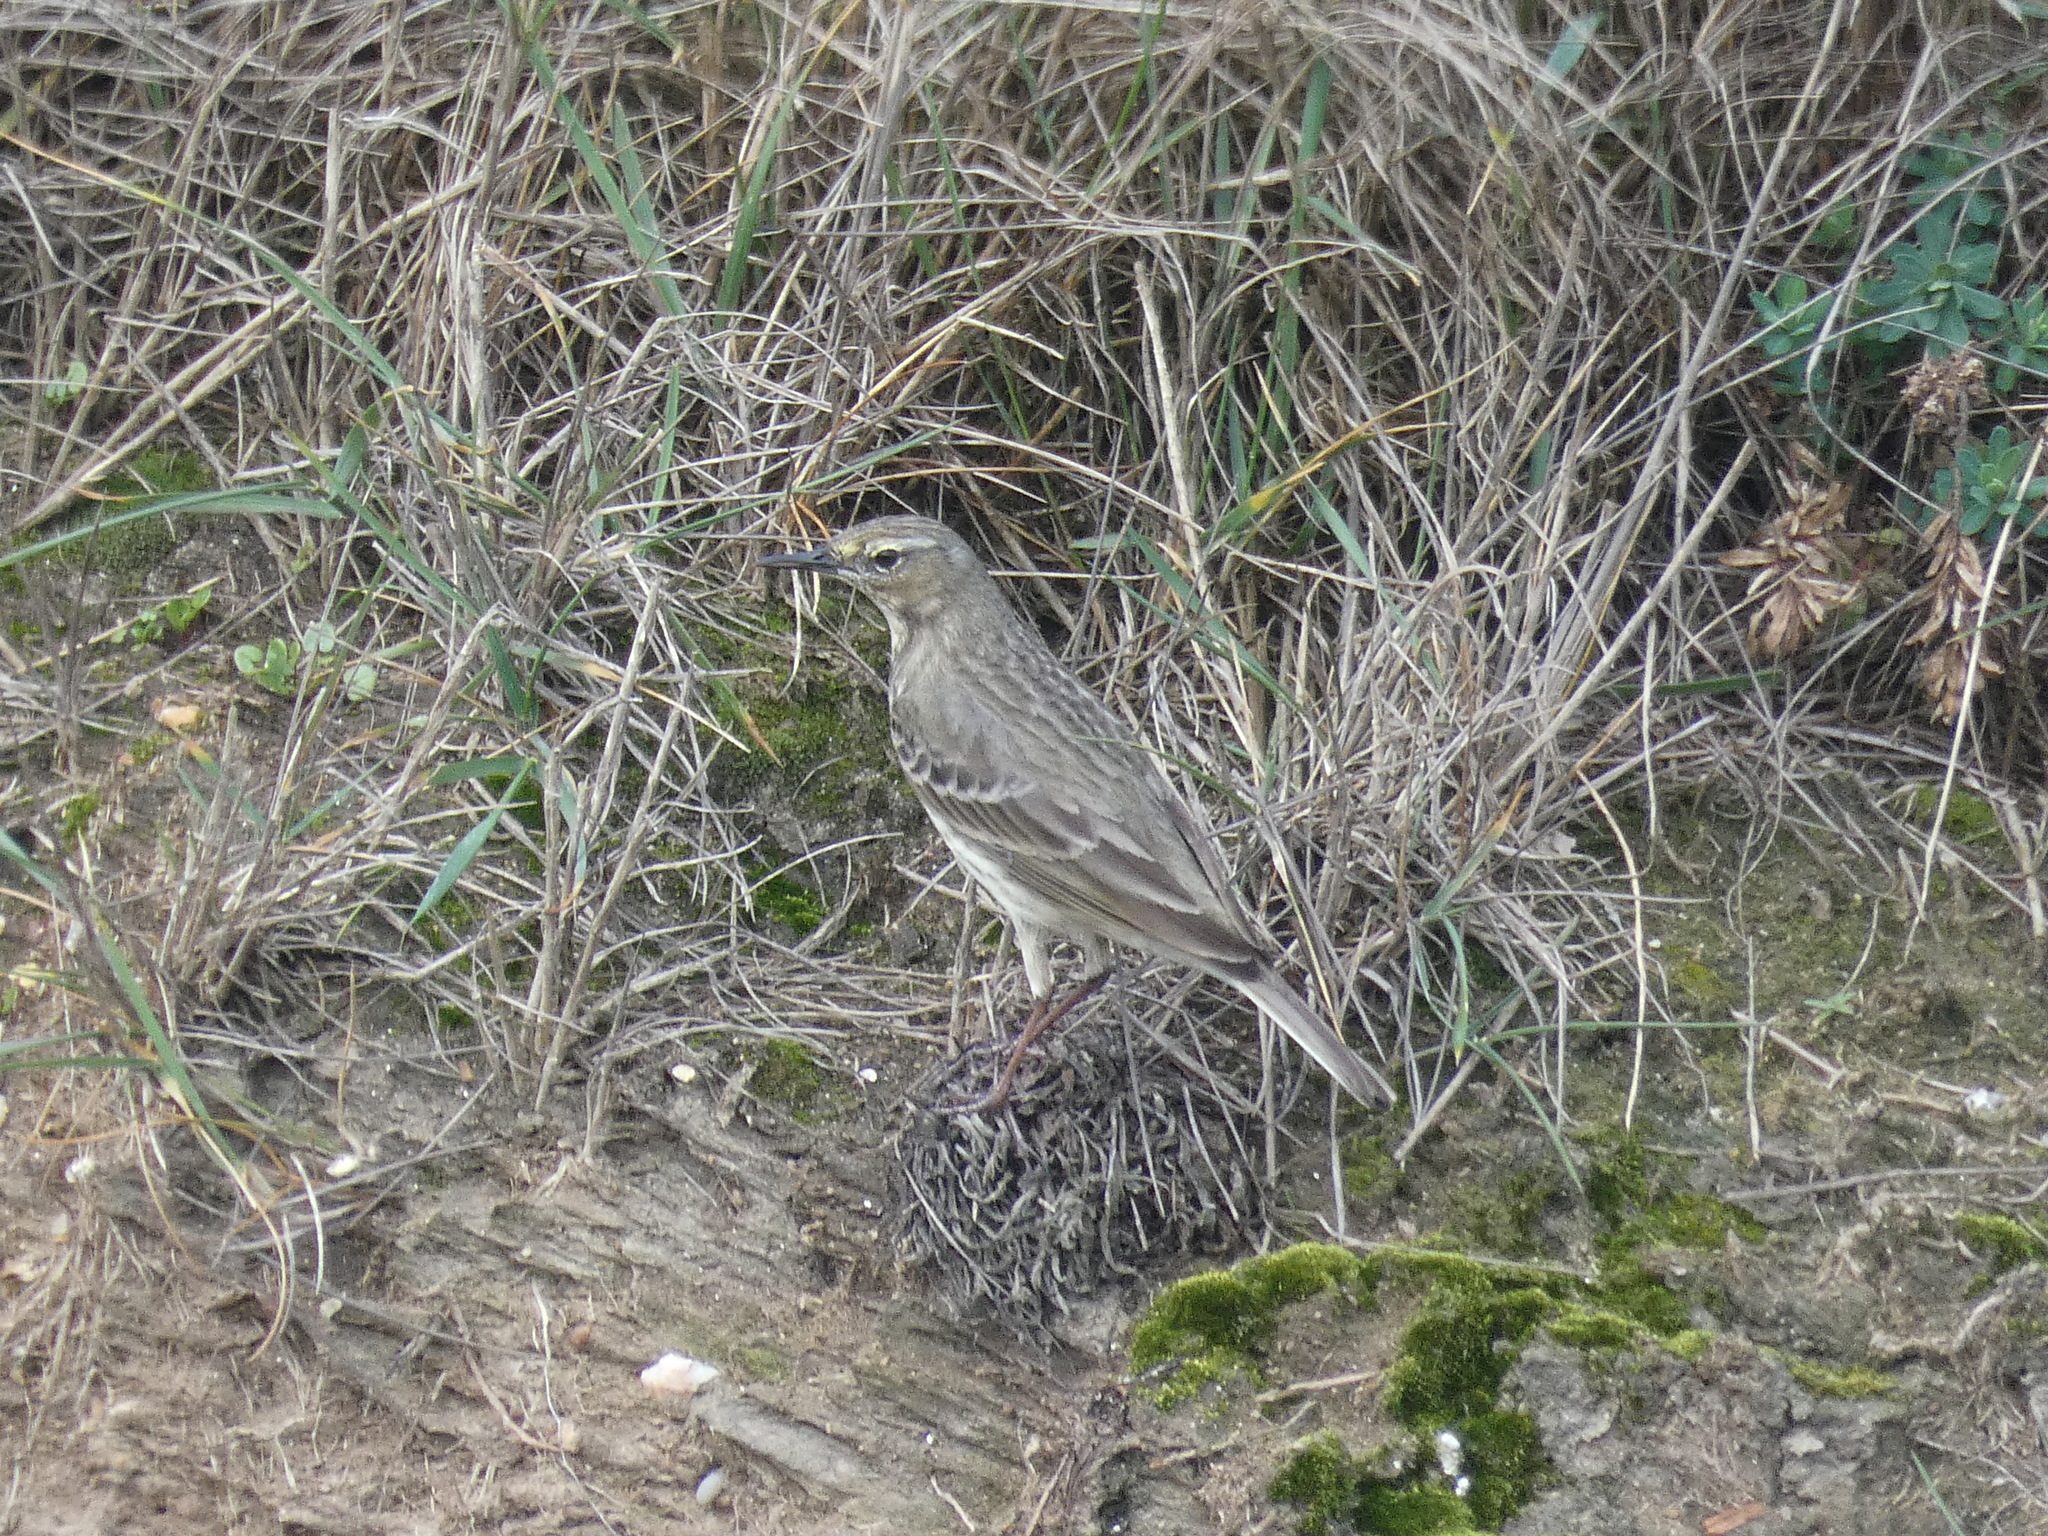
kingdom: Animalia
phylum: Chordata
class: Aves
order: Passeriformes
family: Motacillidae
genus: Anthus
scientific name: Anthus petrosus
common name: Eurasian rock pipit
